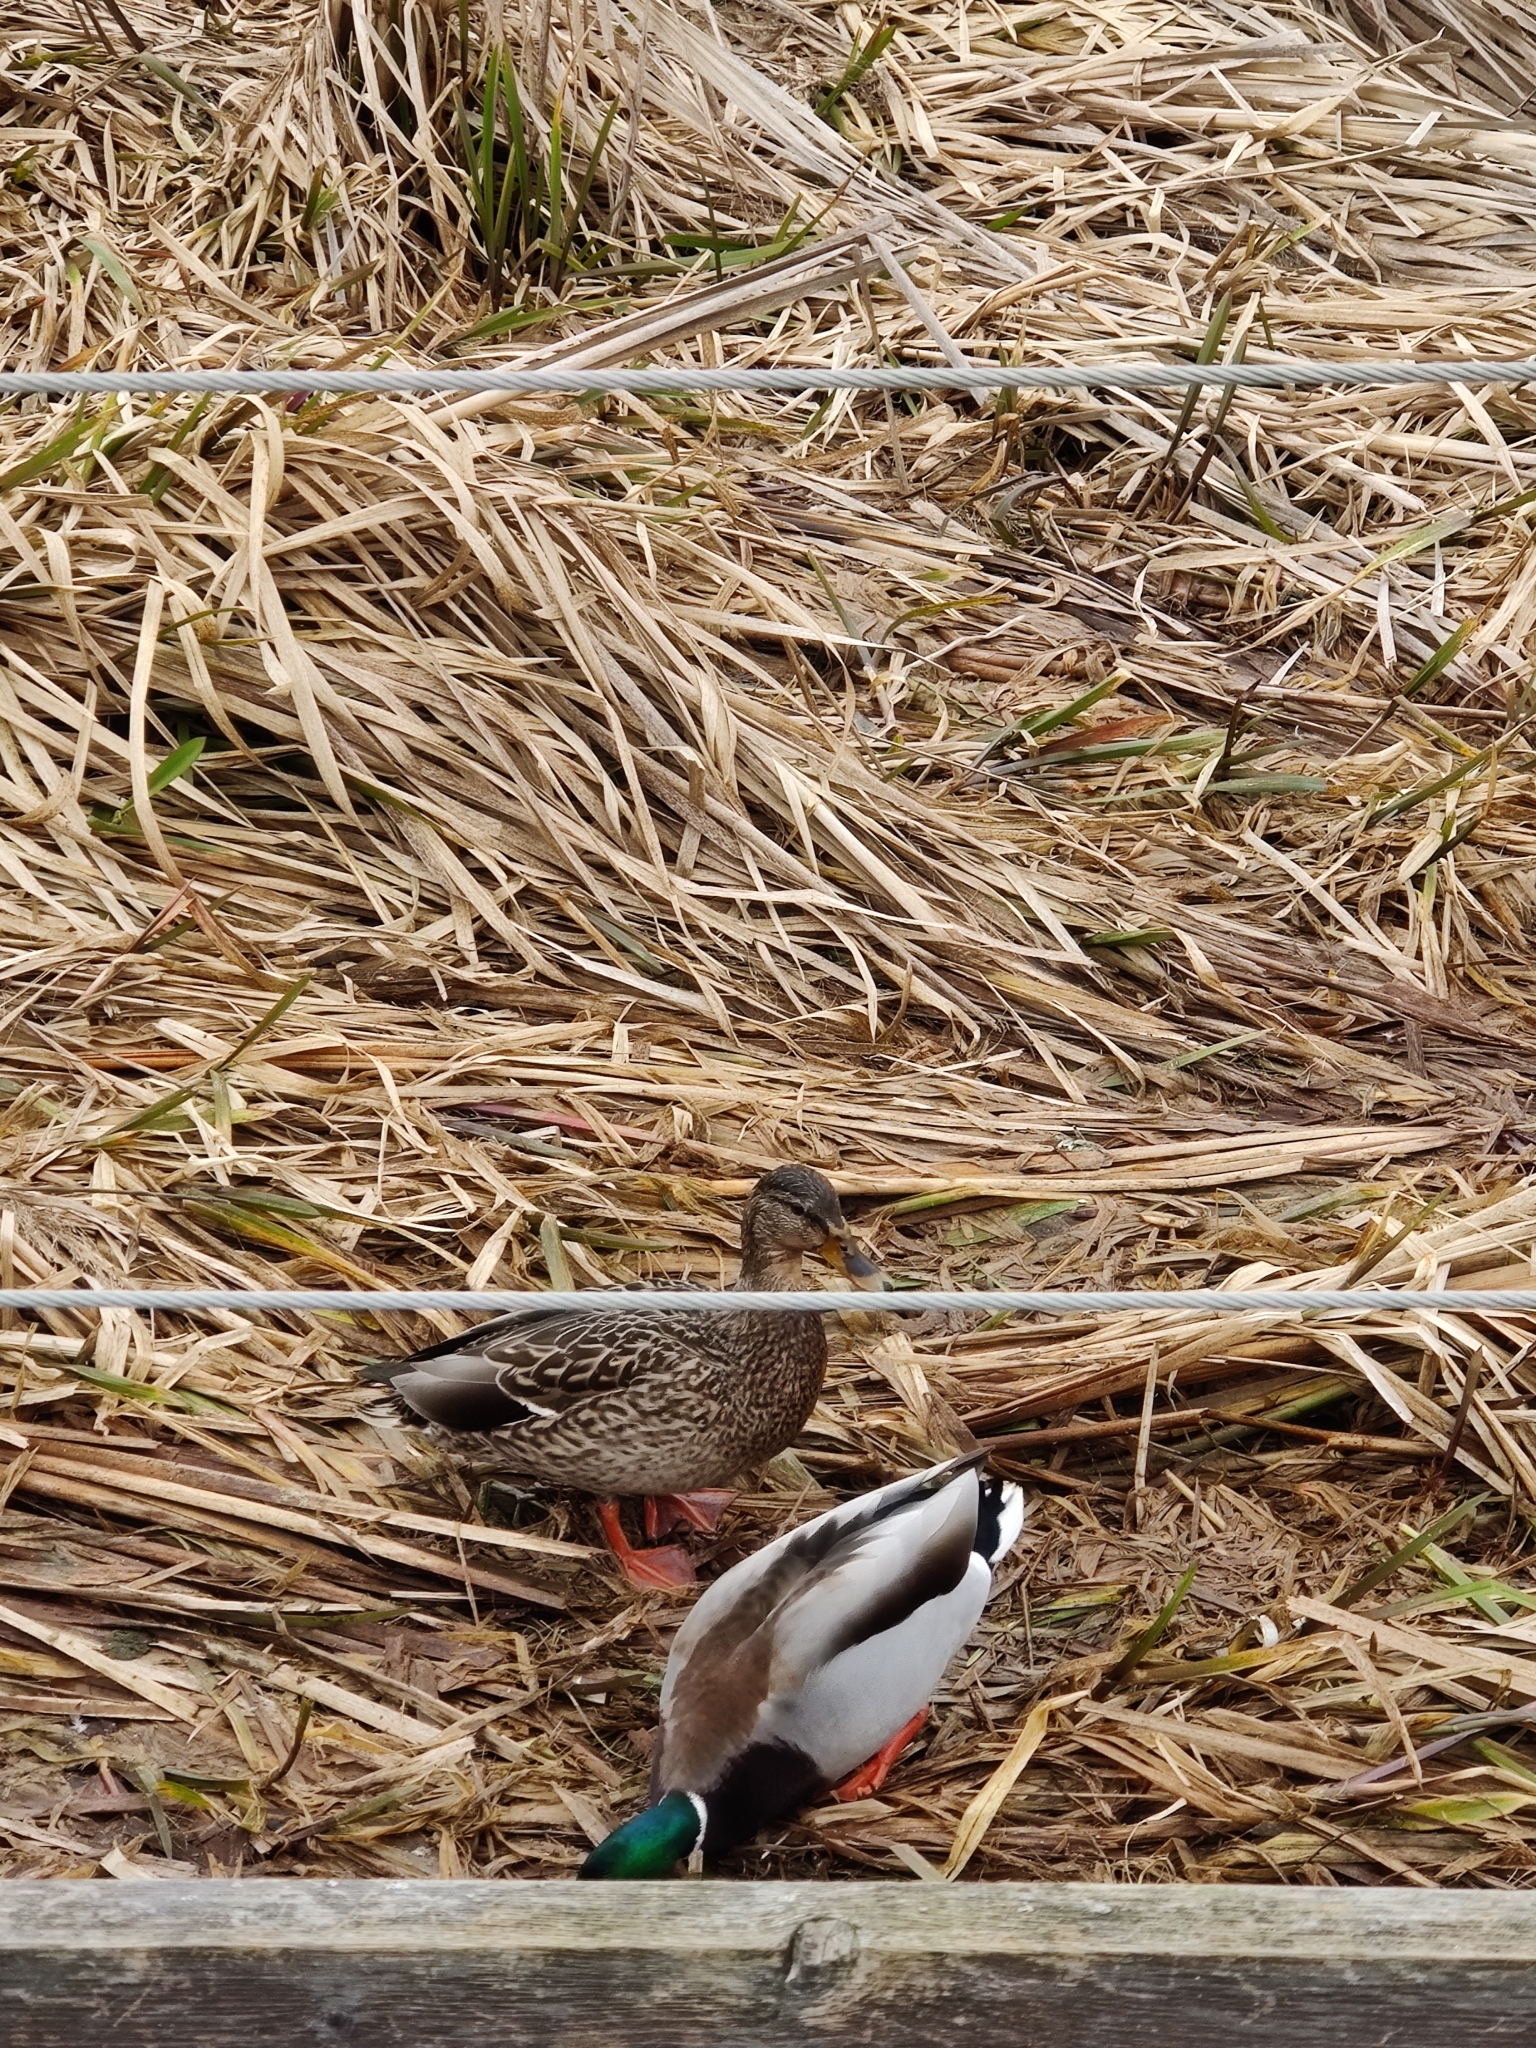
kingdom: Animalia
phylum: Chordata
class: Aves
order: Anseriformes
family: Anatidae
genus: Anas
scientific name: Anas platyrhynchos
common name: Mallard
